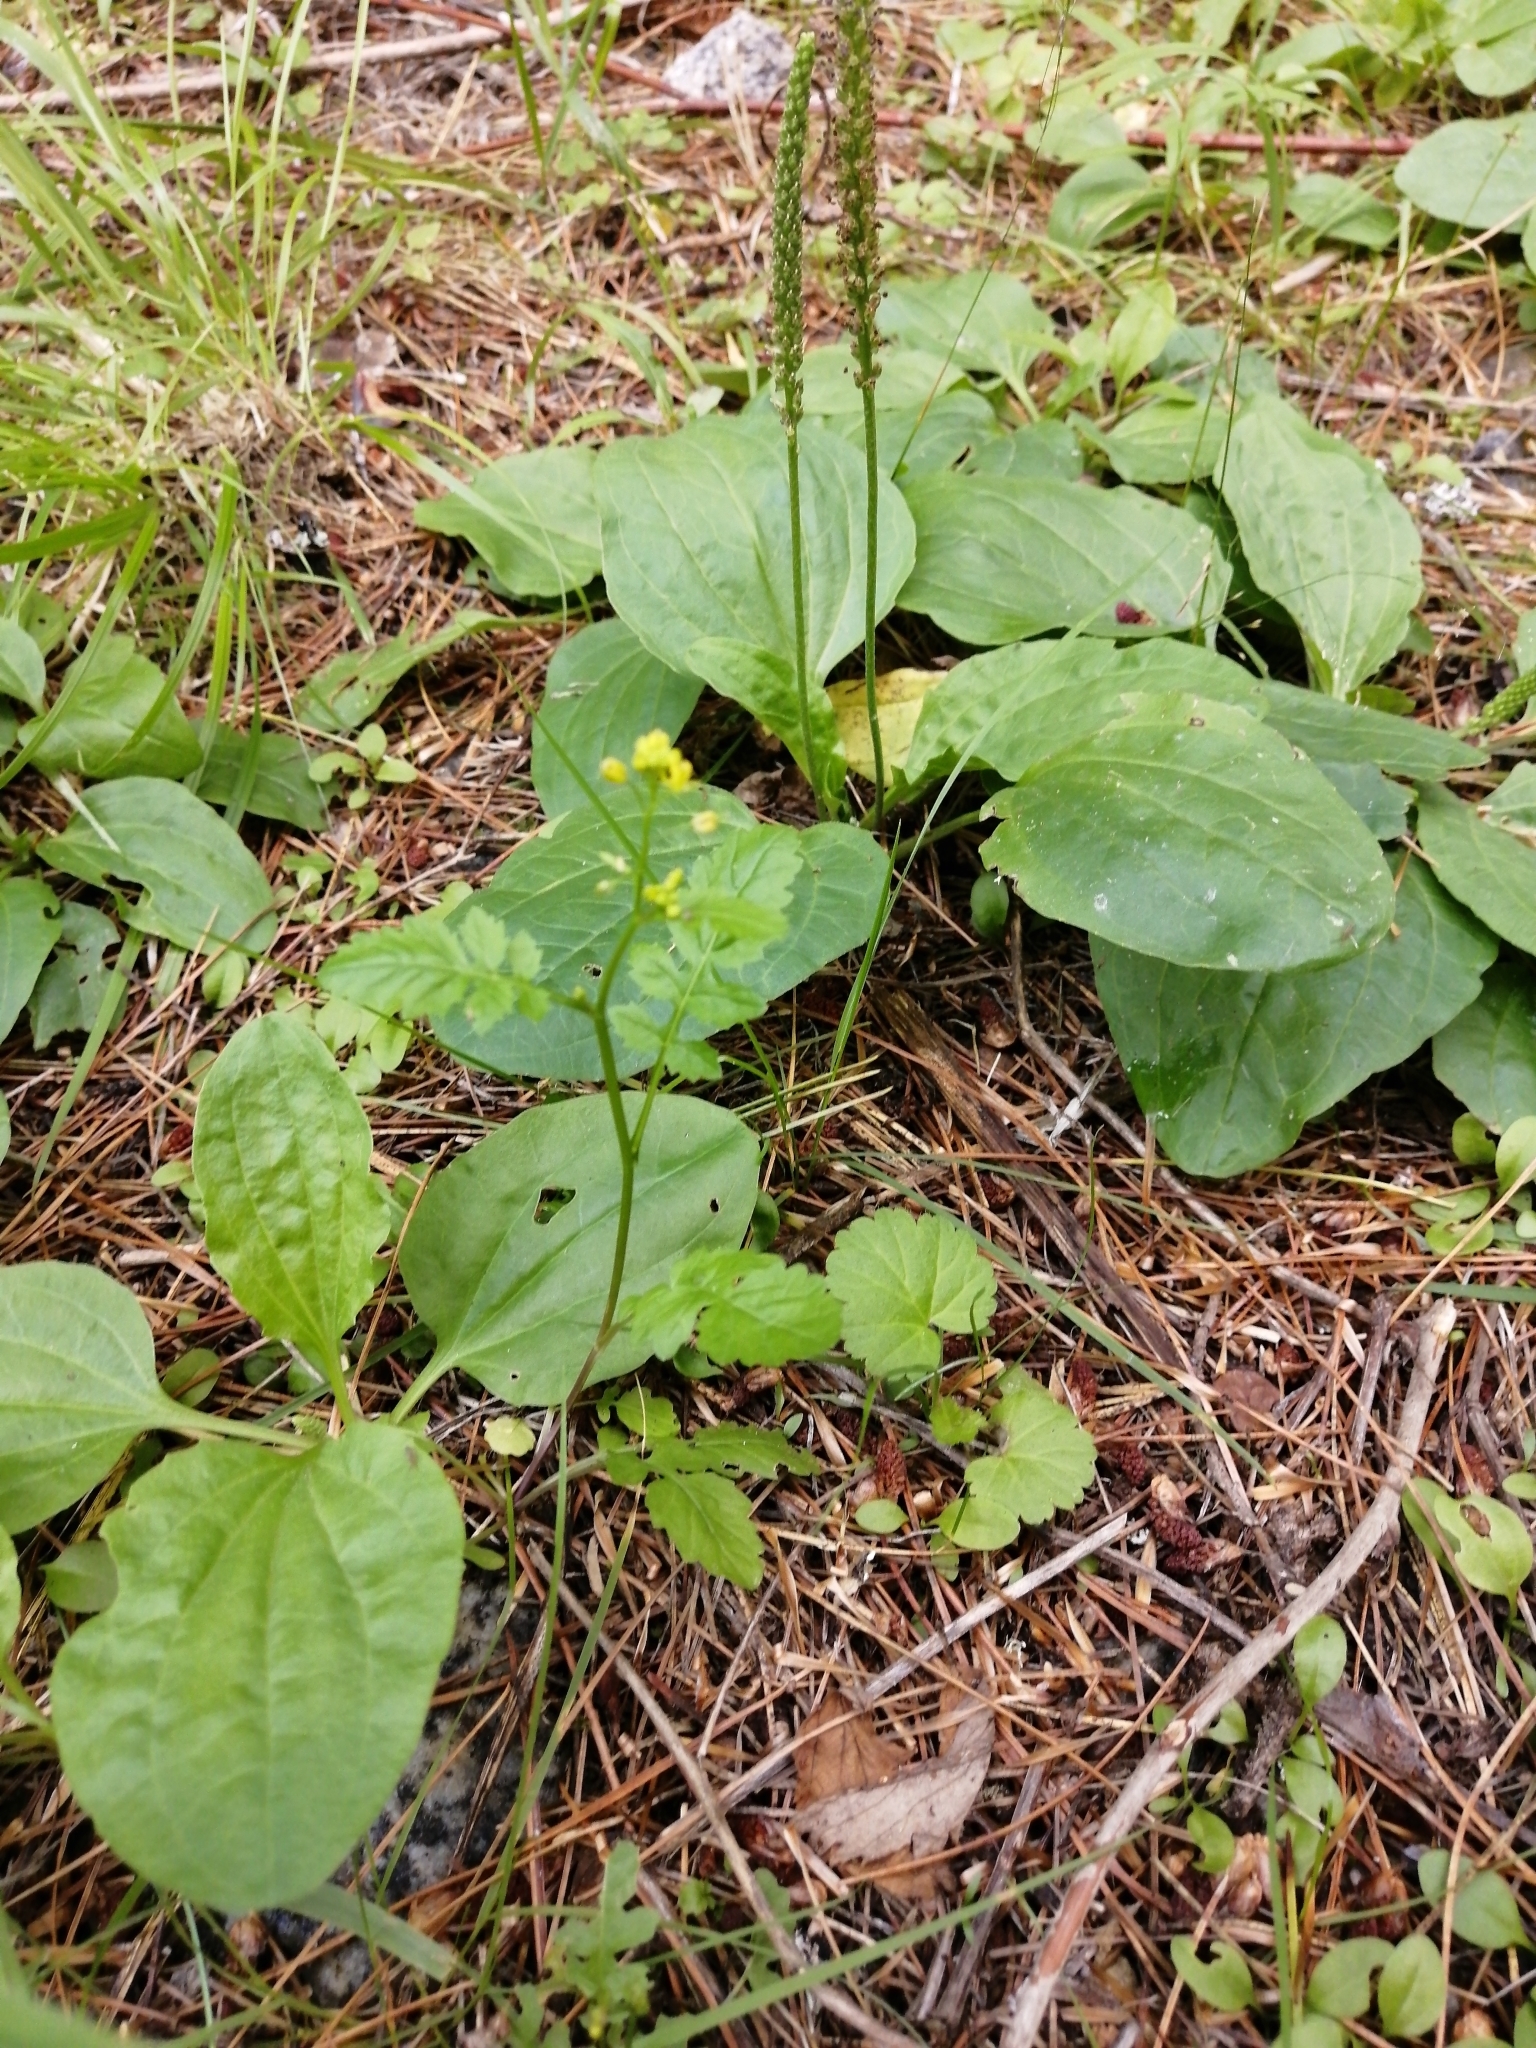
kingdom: Plantae
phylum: Tracheophyta
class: Magnoliopsida
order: Lamiales
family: Plantaginaceae
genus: Plantago
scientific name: Plantago major
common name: Common plantain
